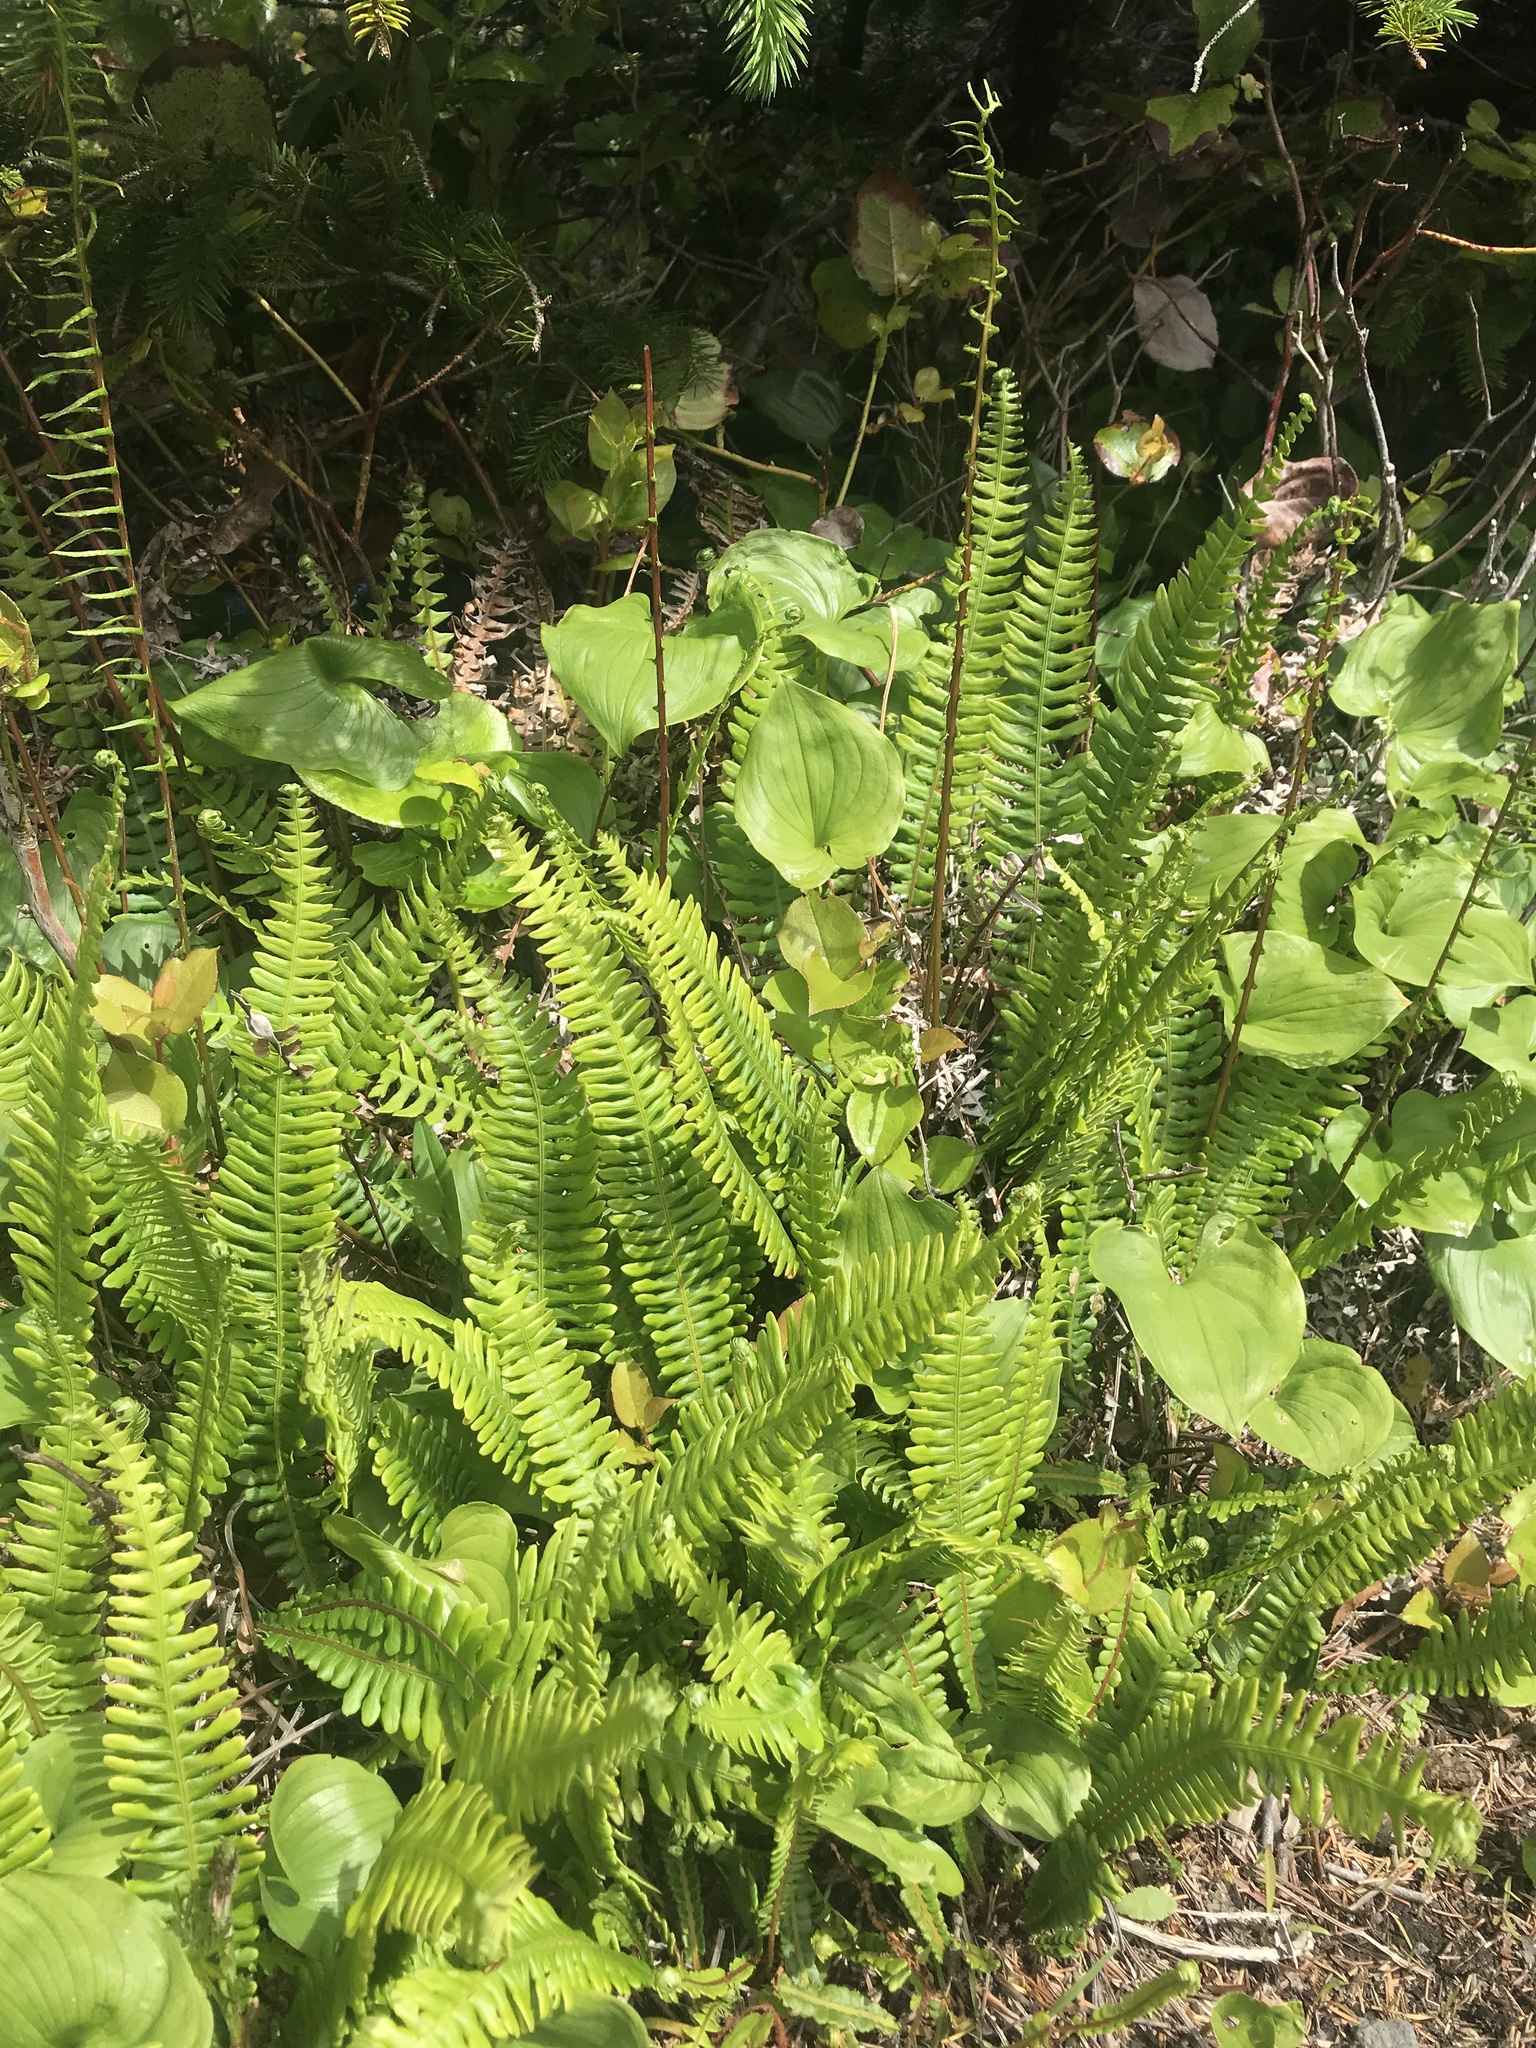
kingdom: Plantae
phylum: Tracheophyta
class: Polypodiopsida
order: Polypodiales
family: Blechnaceae
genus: Struthiopteris
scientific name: Struthiopteris spicant
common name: Deer fern
